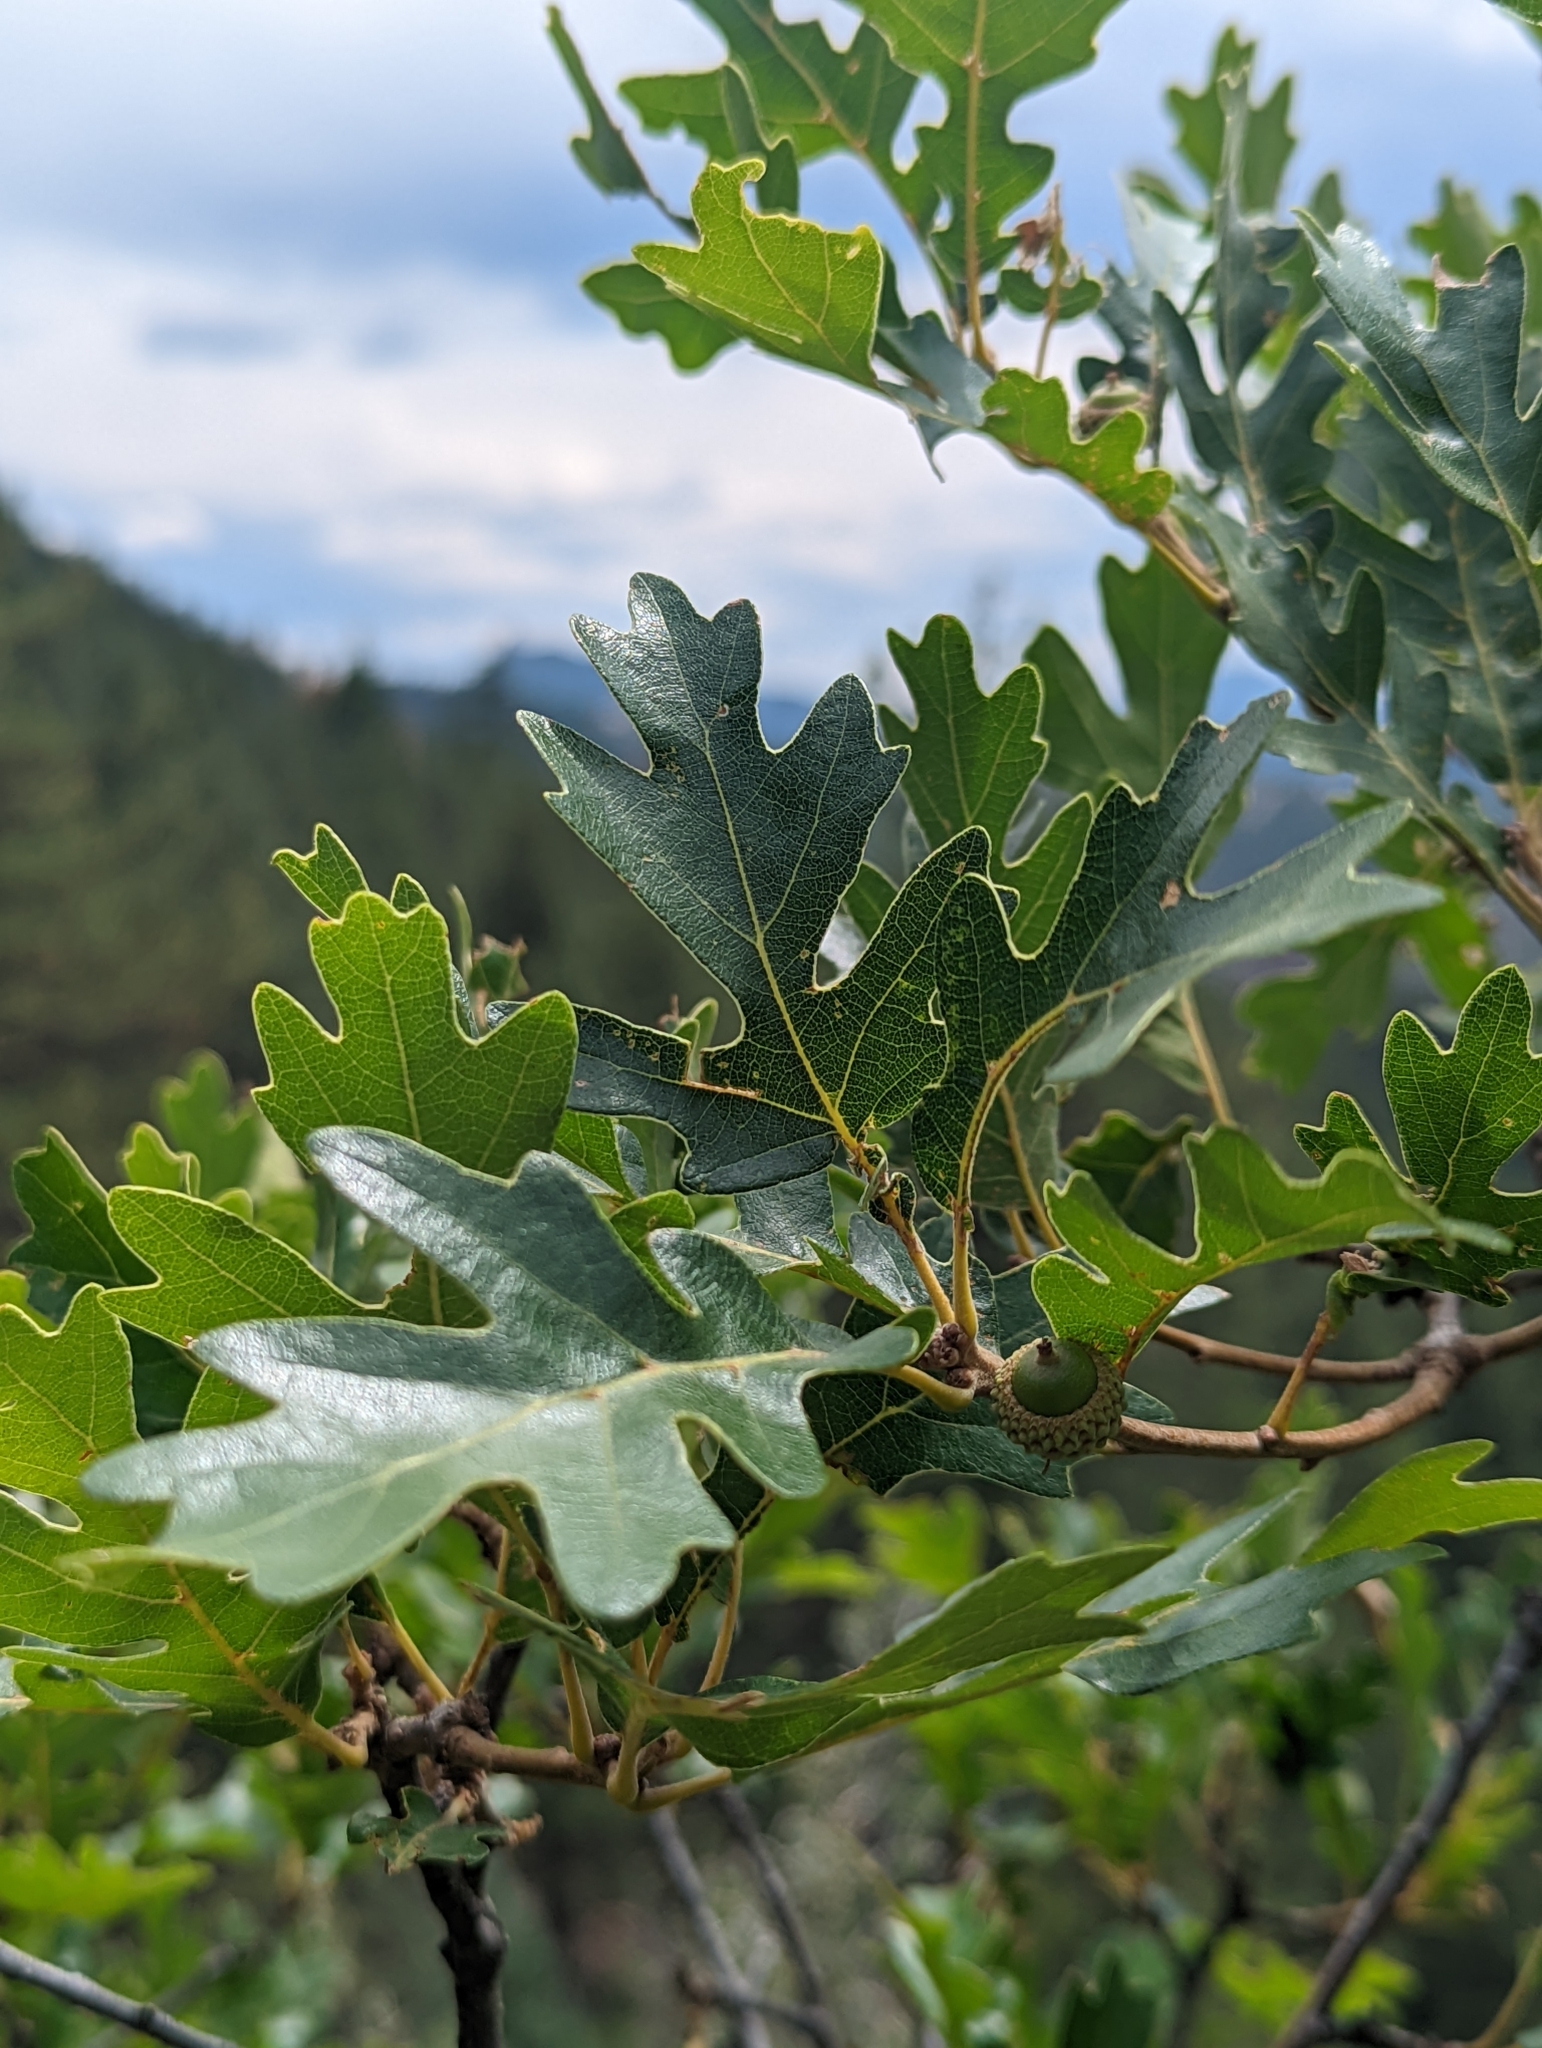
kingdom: Plantae
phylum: Tracheophyta
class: Magnoliopsida
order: Fagales
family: Fagaceae
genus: Quercus
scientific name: Quercus gambelii
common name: Gambel oak
